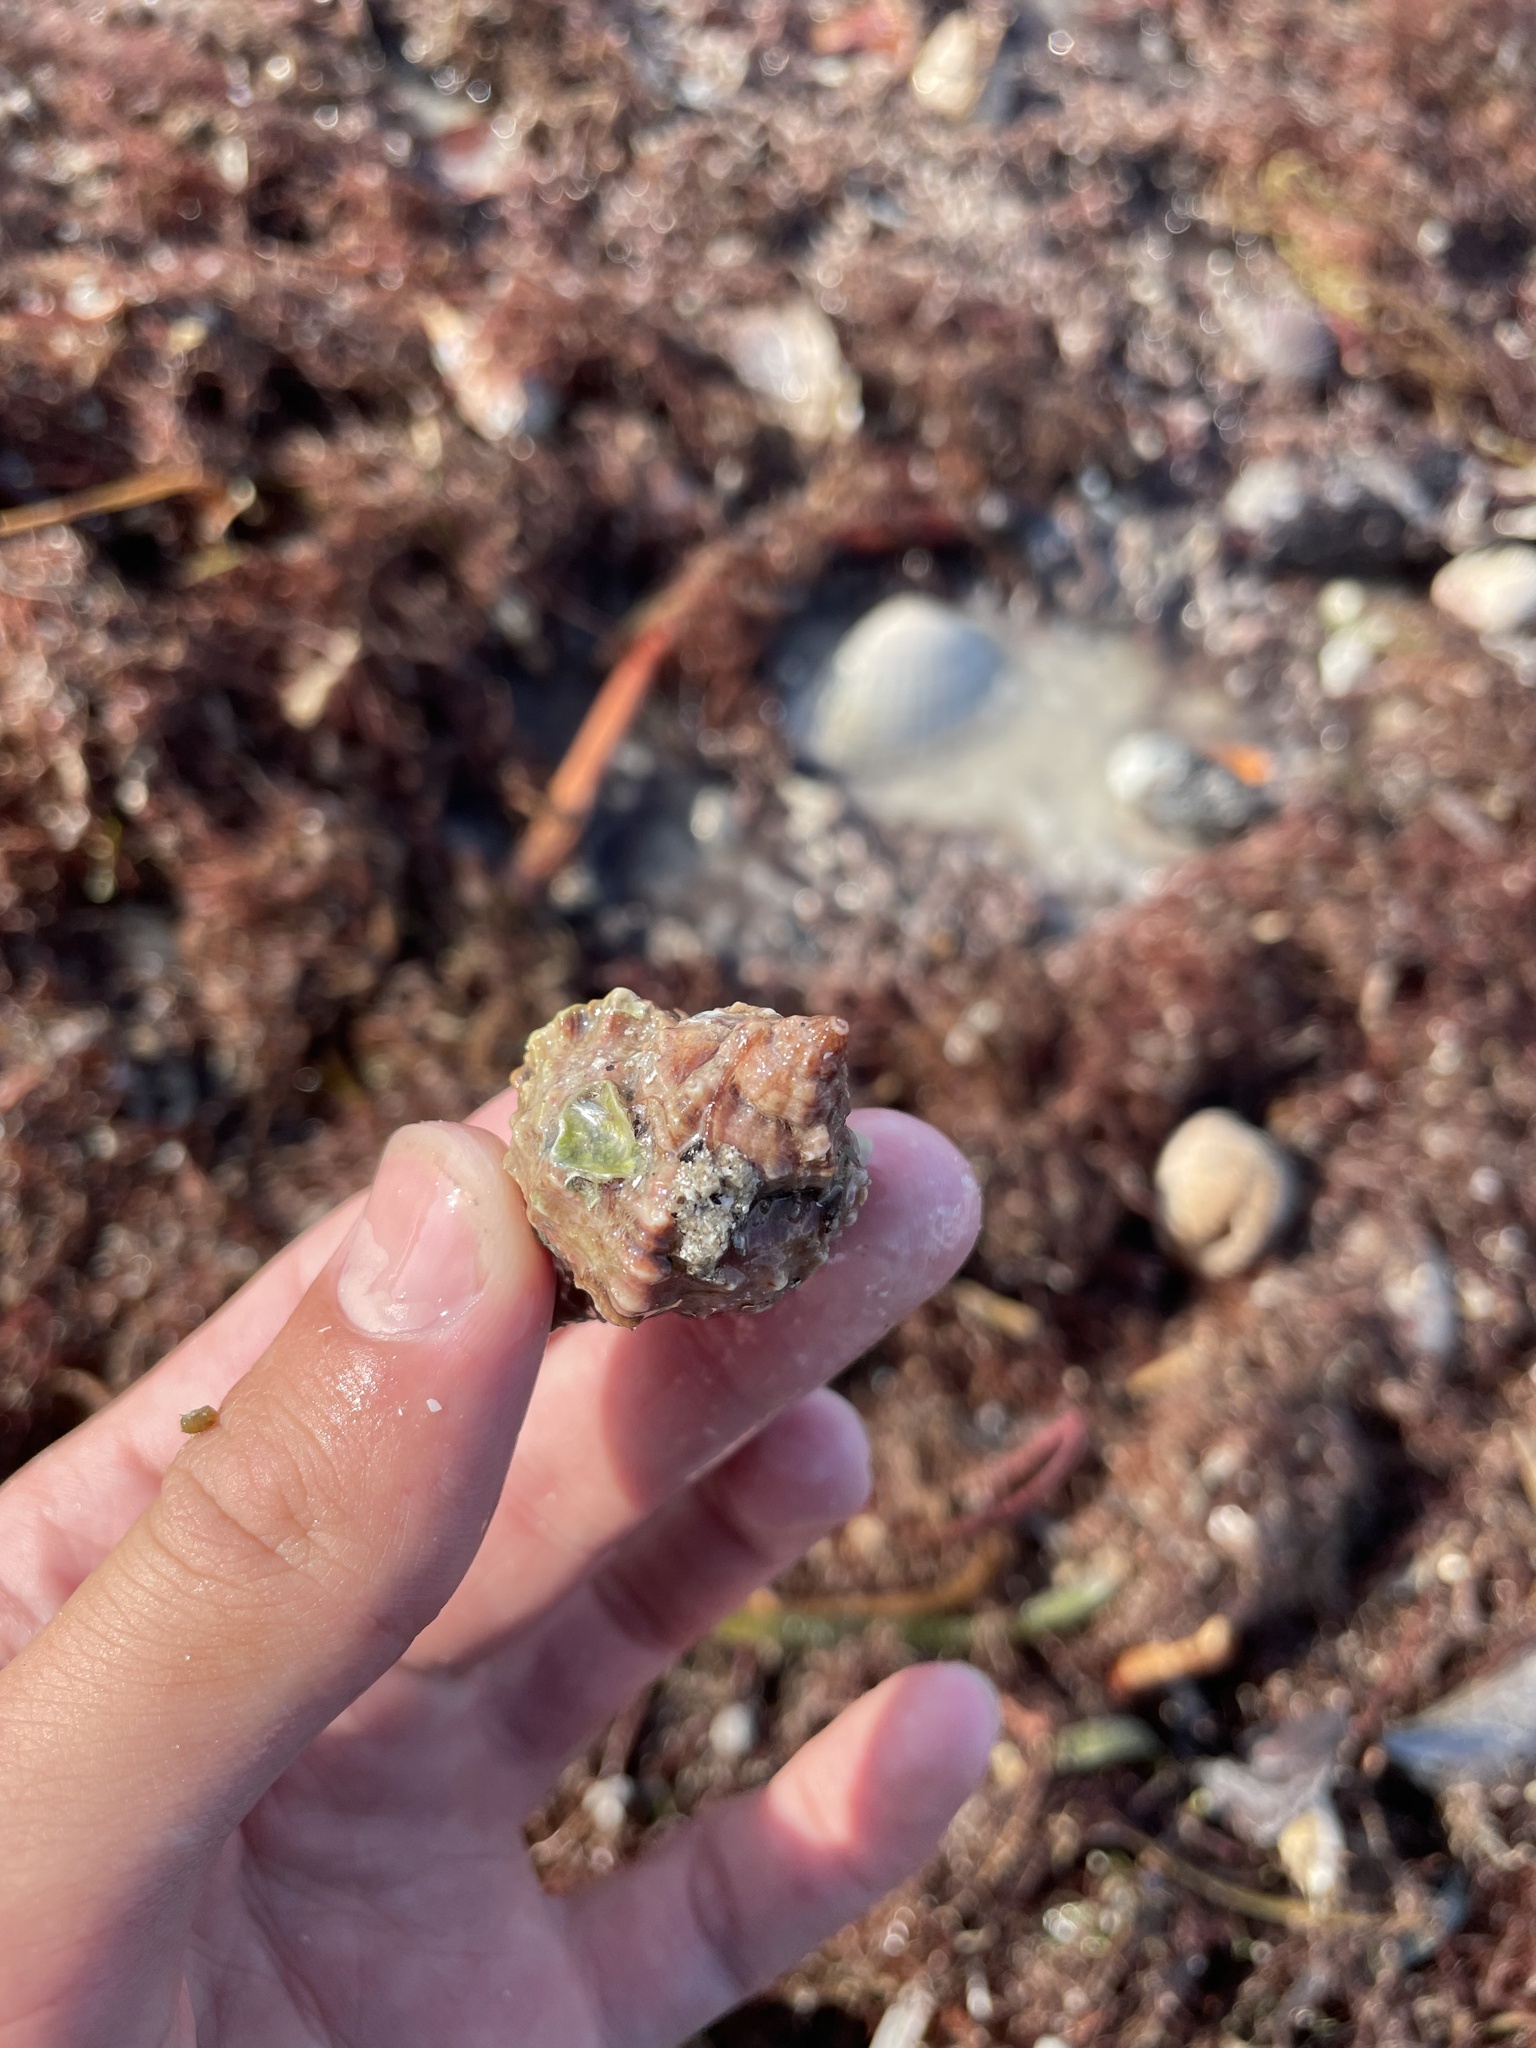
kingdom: Animalia
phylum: Mollusca
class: Gastropoda
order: Neogastropoda
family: Muricidae
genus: Phyllonotus
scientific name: Phyllonotus pomum
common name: Apple murex
